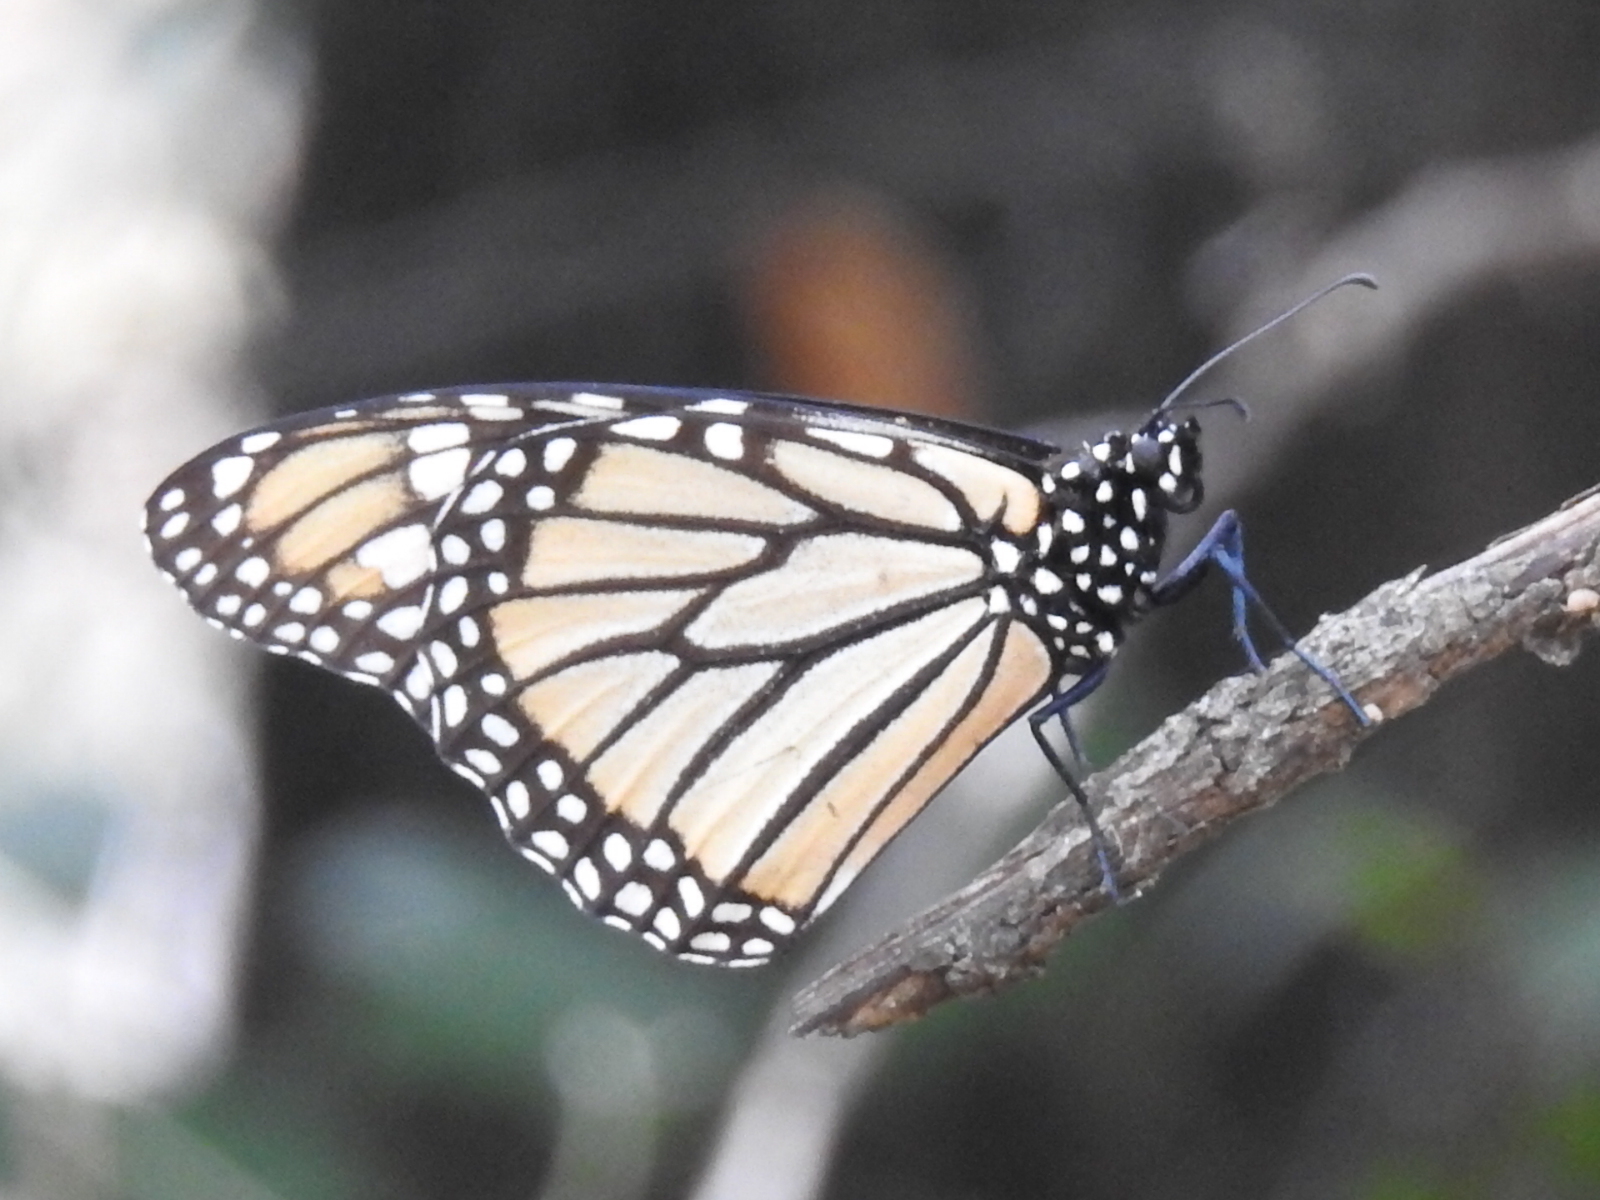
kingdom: Animalia
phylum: Arthropoda
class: Insecta
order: Lepidoptera
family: Nymphalidae
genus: Danaus
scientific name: Danaus plexippus
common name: Monarch
